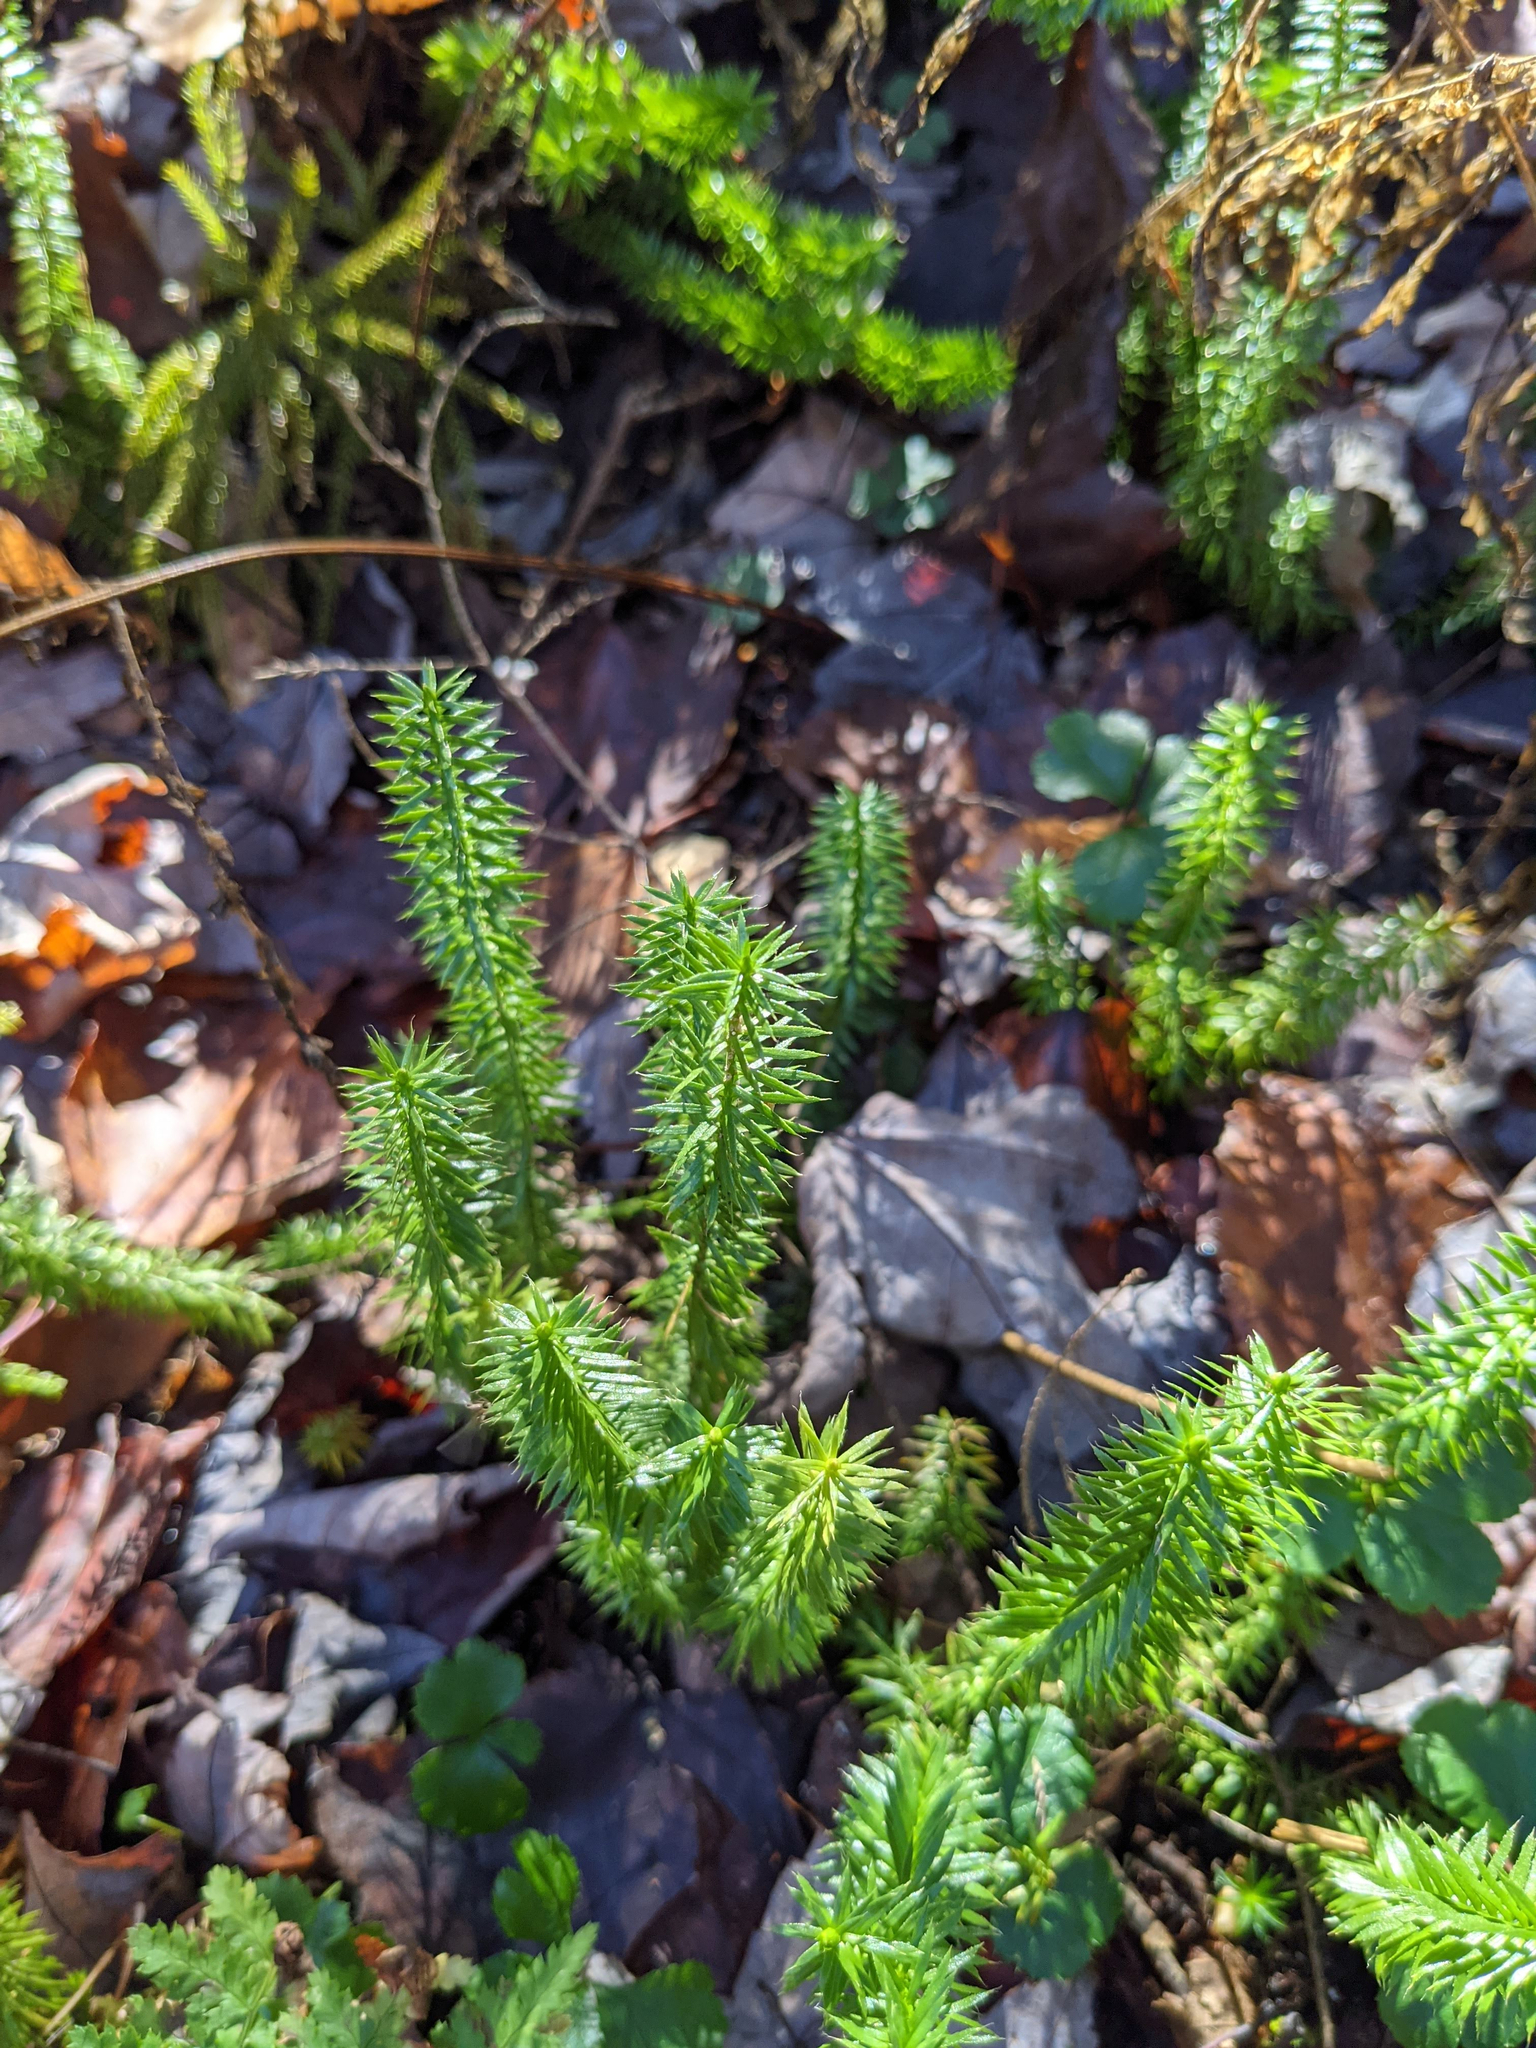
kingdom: Plantae
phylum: Tracheophyta
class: Lycopodiopsida
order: Lycopodiales
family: Lycopodiaceae
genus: Spinulum
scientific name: Spinulum annotinum
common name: Interrupted club-moss
